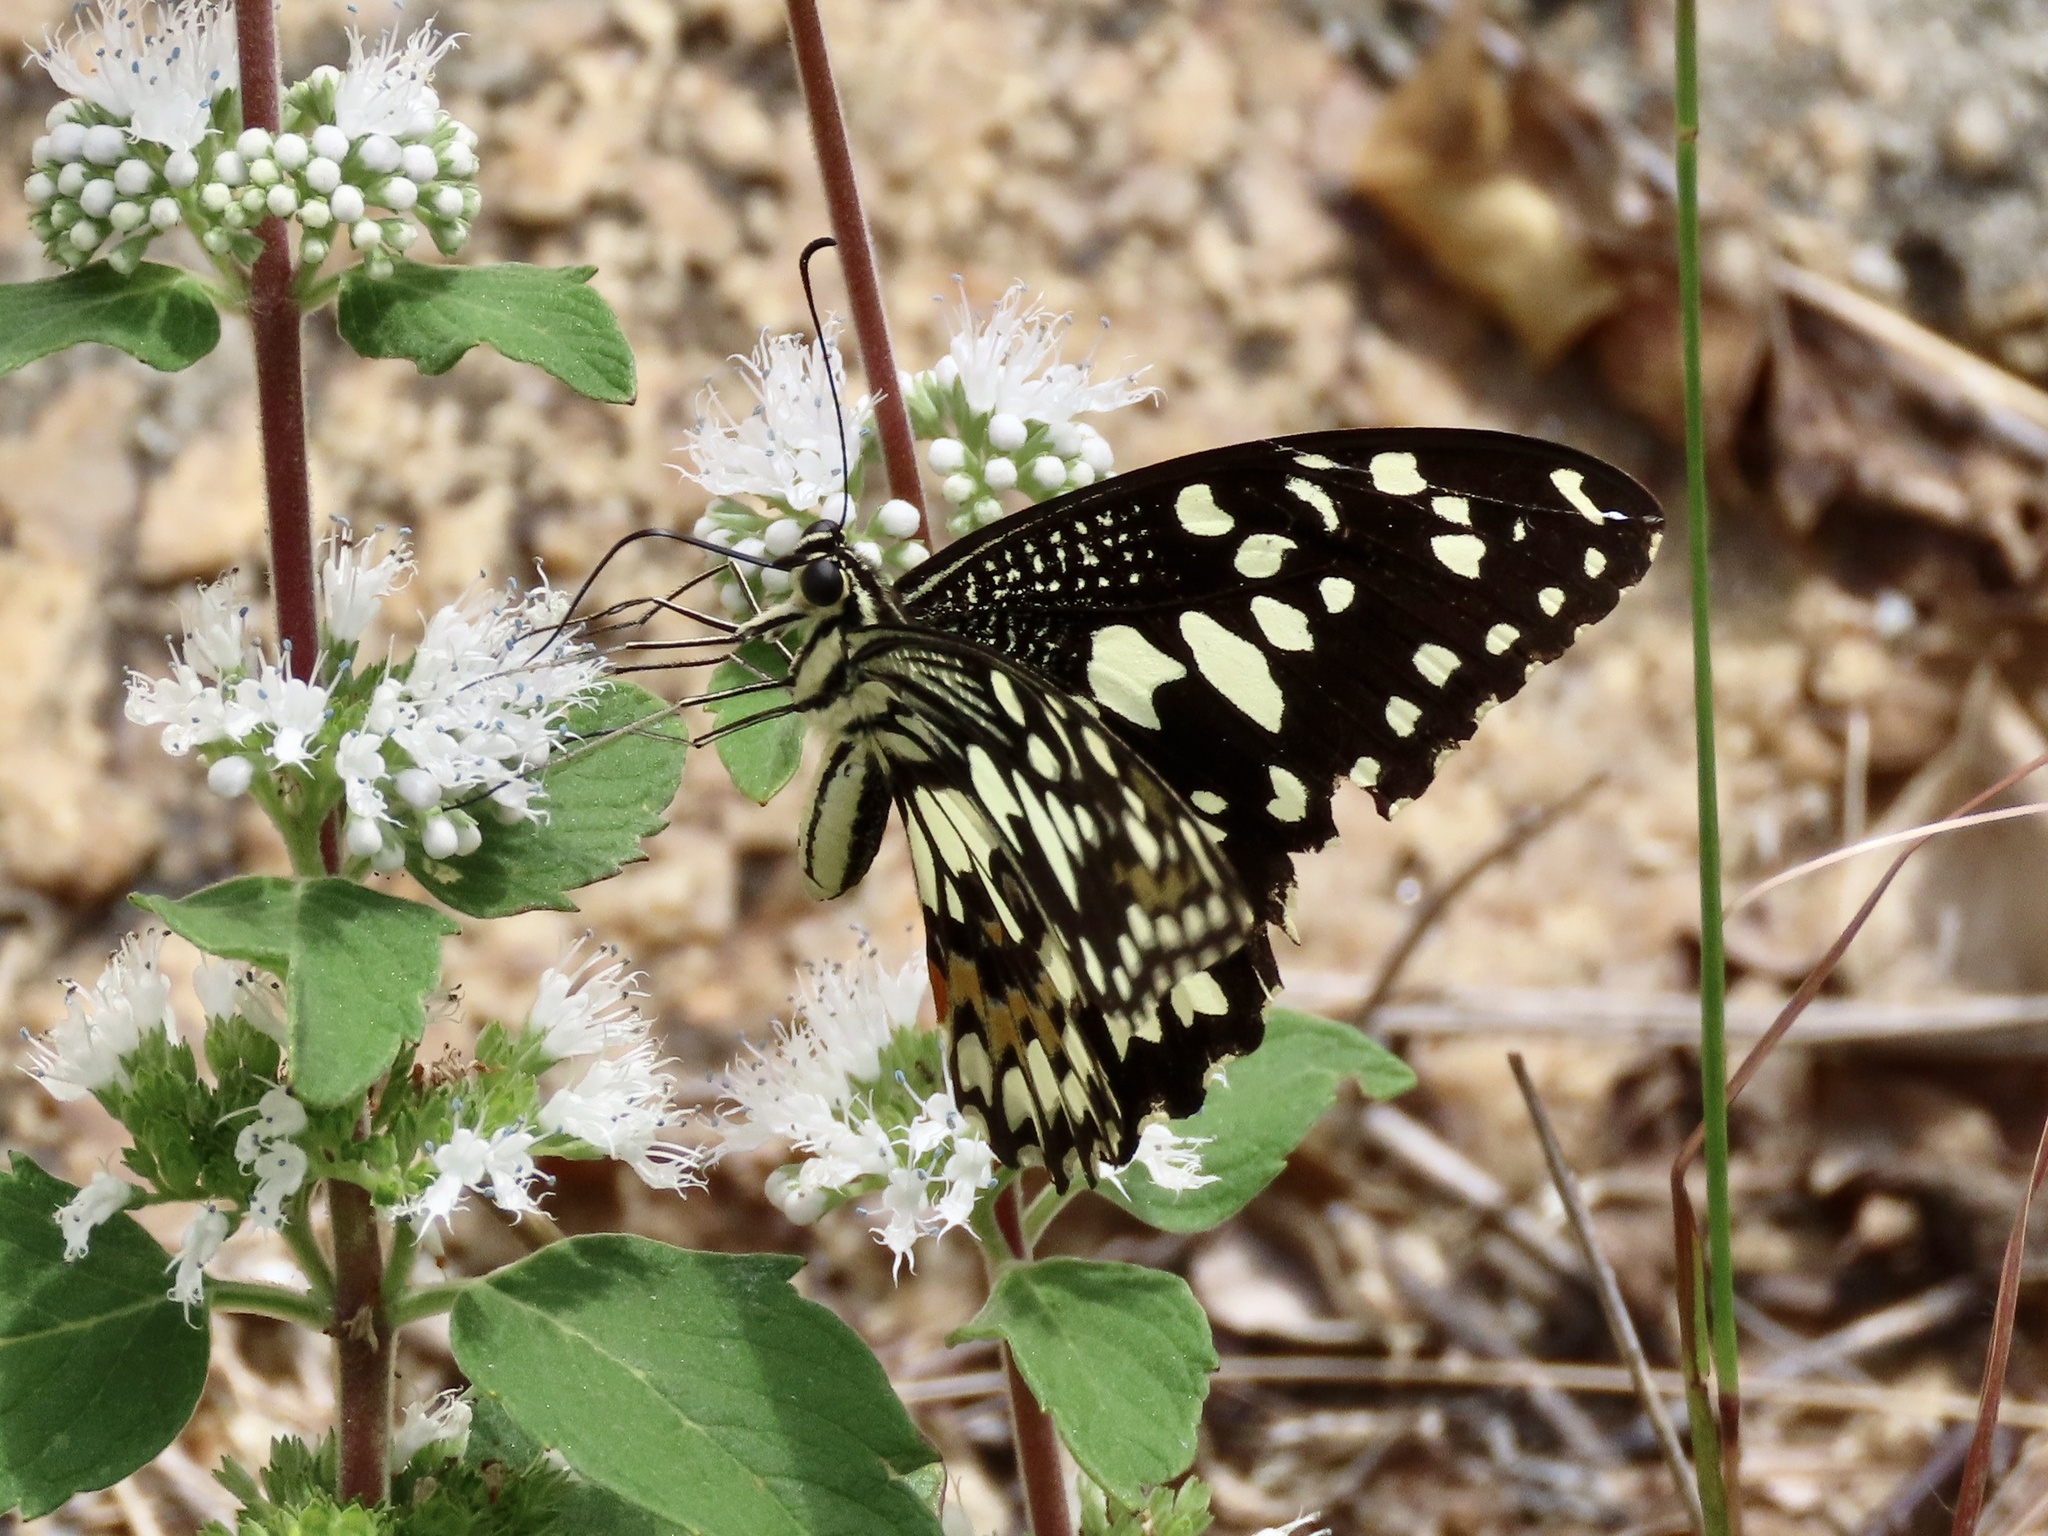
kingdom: Animalia
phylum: Arthropoda
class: Insecta
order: Lepidoptera
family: Papilionidae
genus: Papilio
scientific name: Papilio demoleus
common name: Lime butterfly
